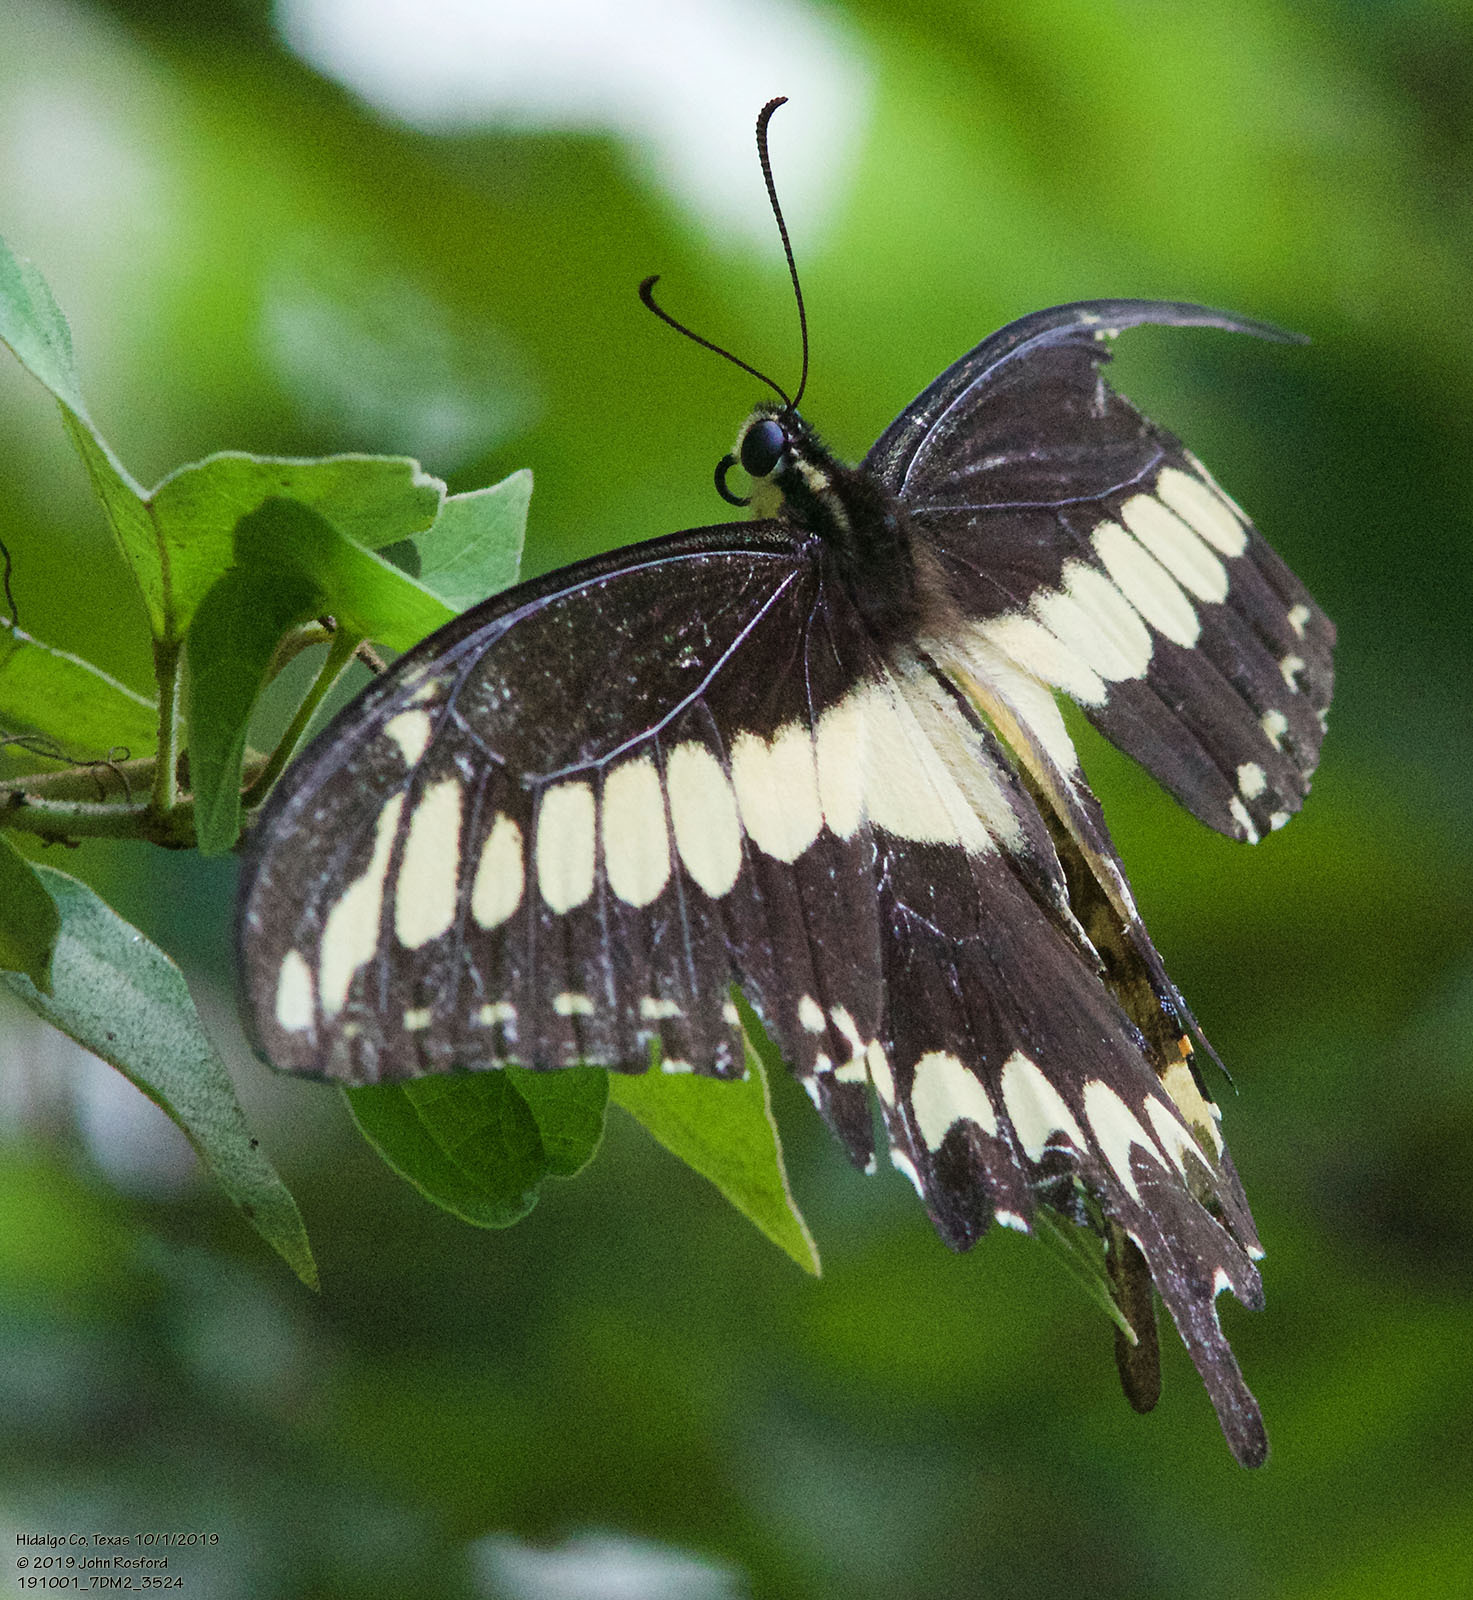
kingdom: Animalia
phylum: Arthropoda
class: Insecta
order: Lepidoptera
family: Papilionidae
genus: Papilio
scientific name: Papilio ornythion
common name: Ornythion swallowtail
